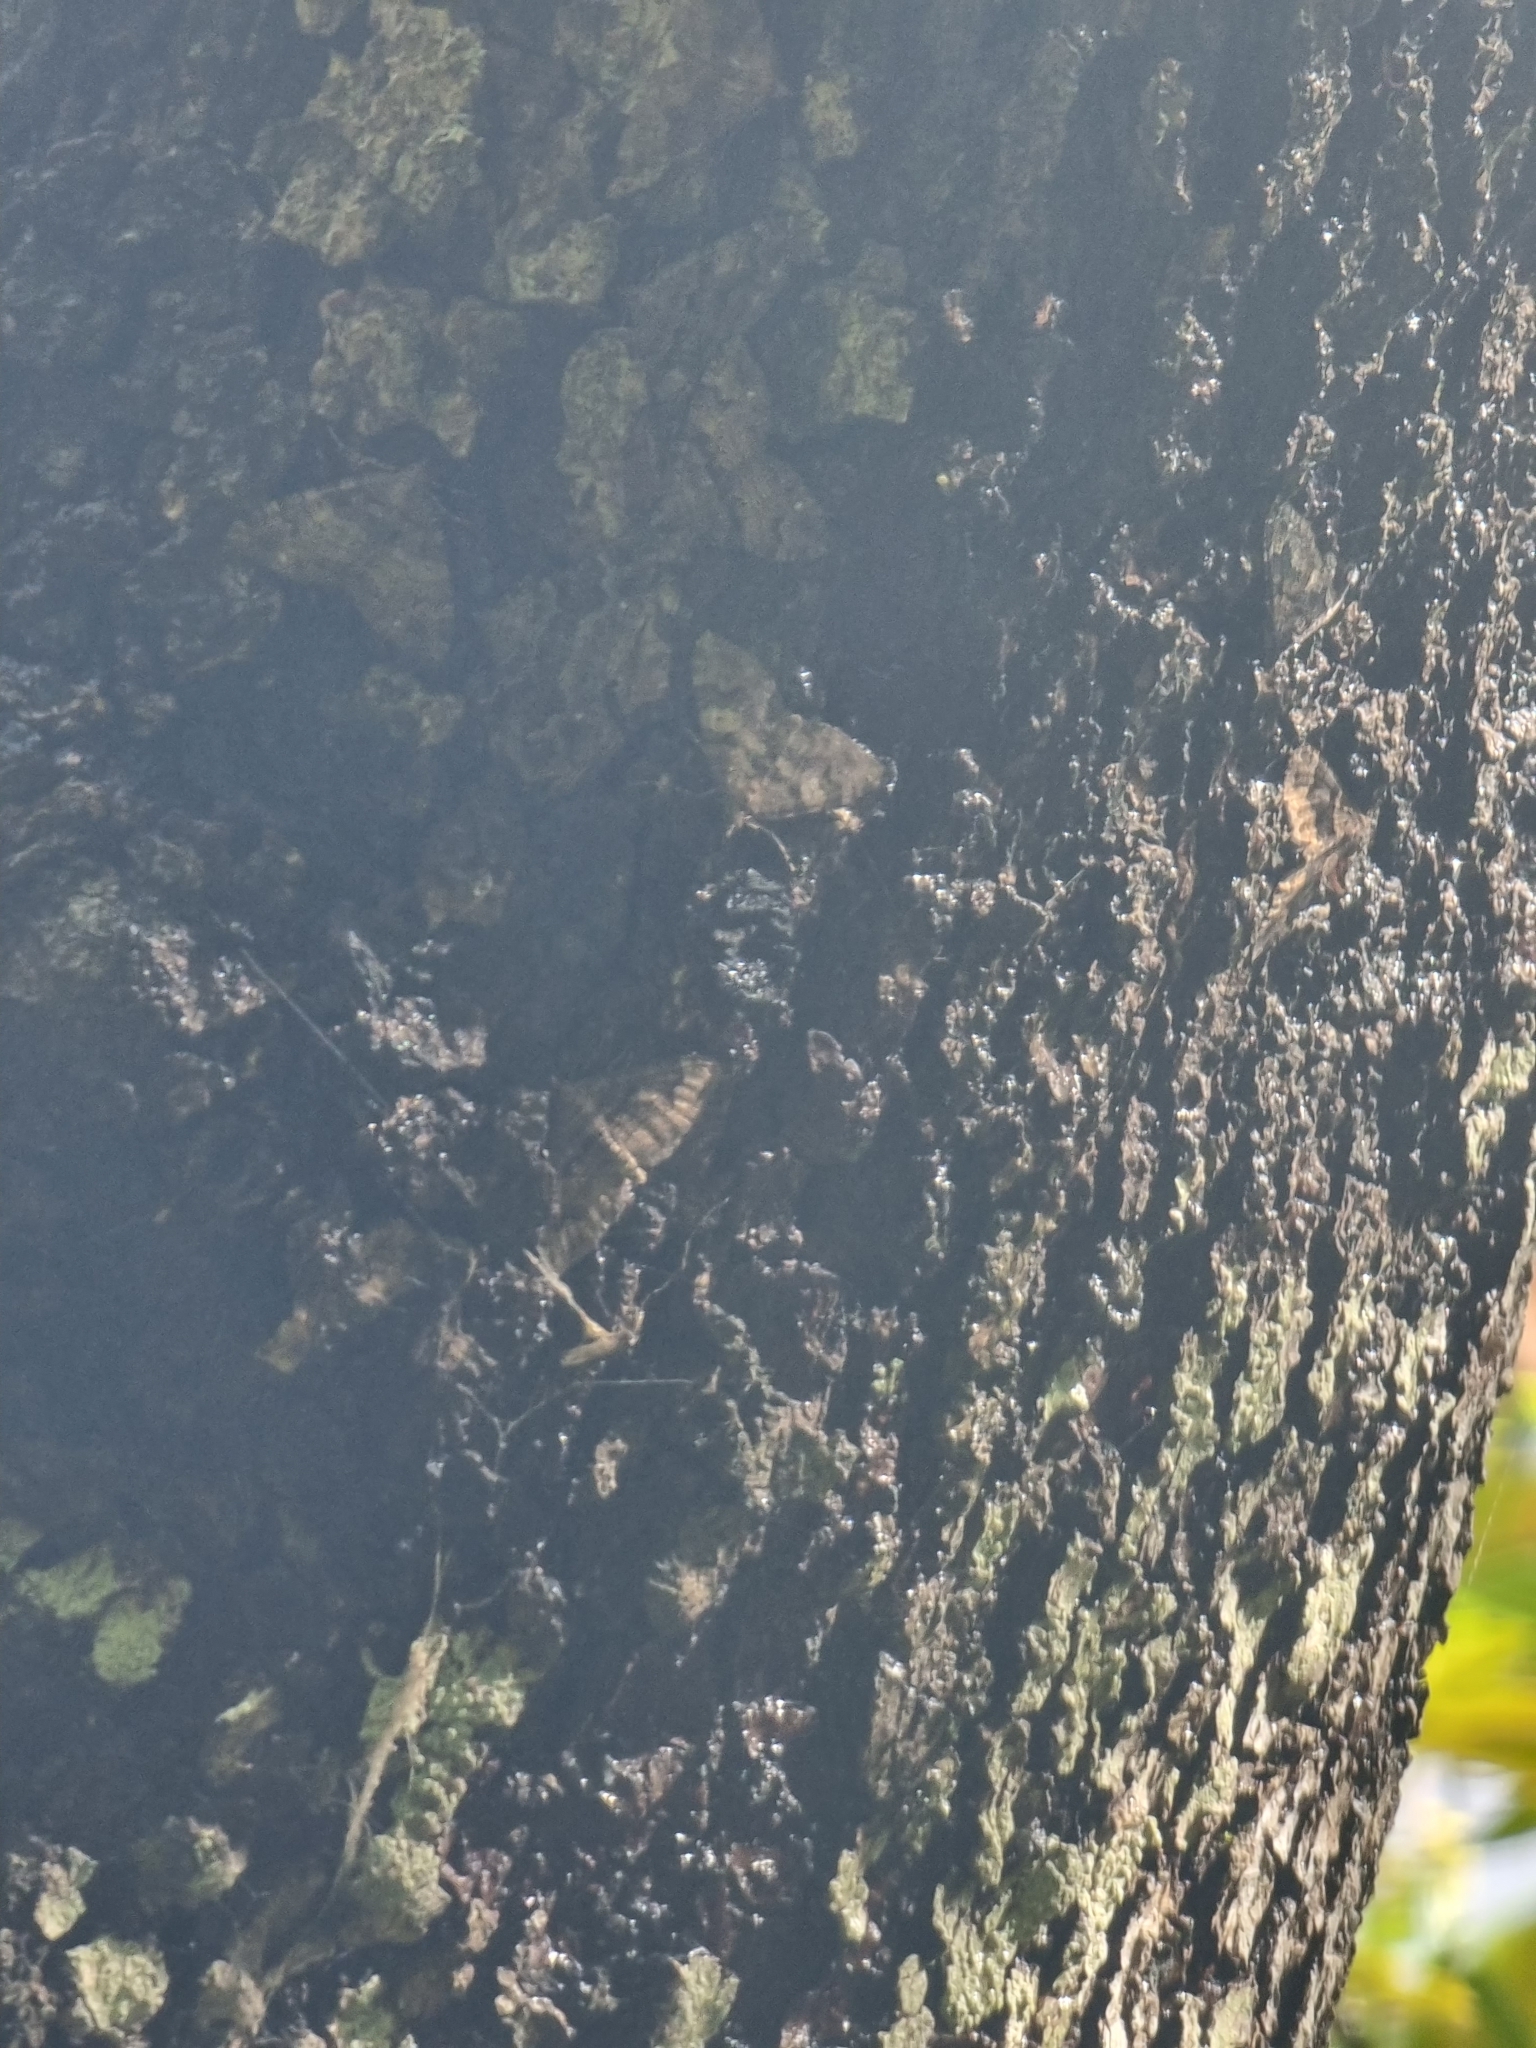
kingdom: Animalia
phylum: Arthropoda
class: Insecta
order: Lepidoptera
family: Geometridae
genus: Xanthorhoe
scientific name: Xanthorhoe rupicola
